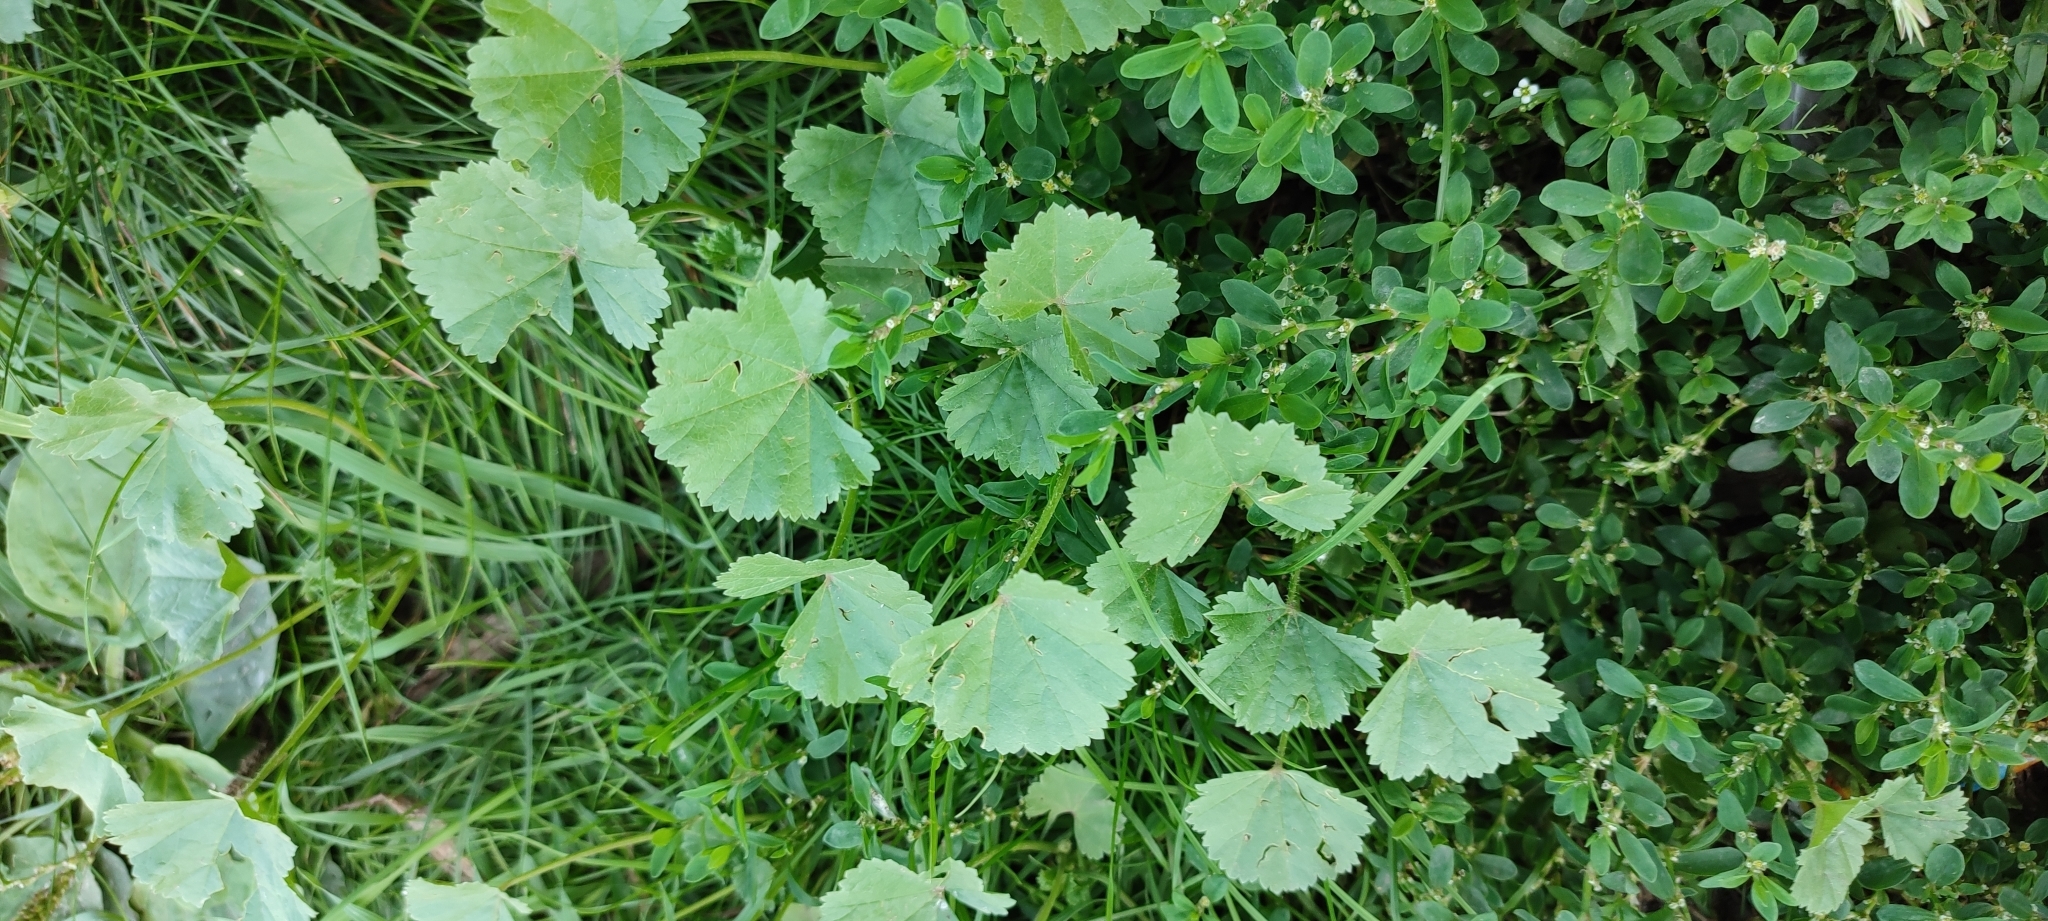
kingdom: Plantae
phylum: Tracheophyta
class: Magnoliopsida
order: Malvales
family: Malvaceae
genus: Malva
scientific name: Malva pusilla
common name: Small mallow
